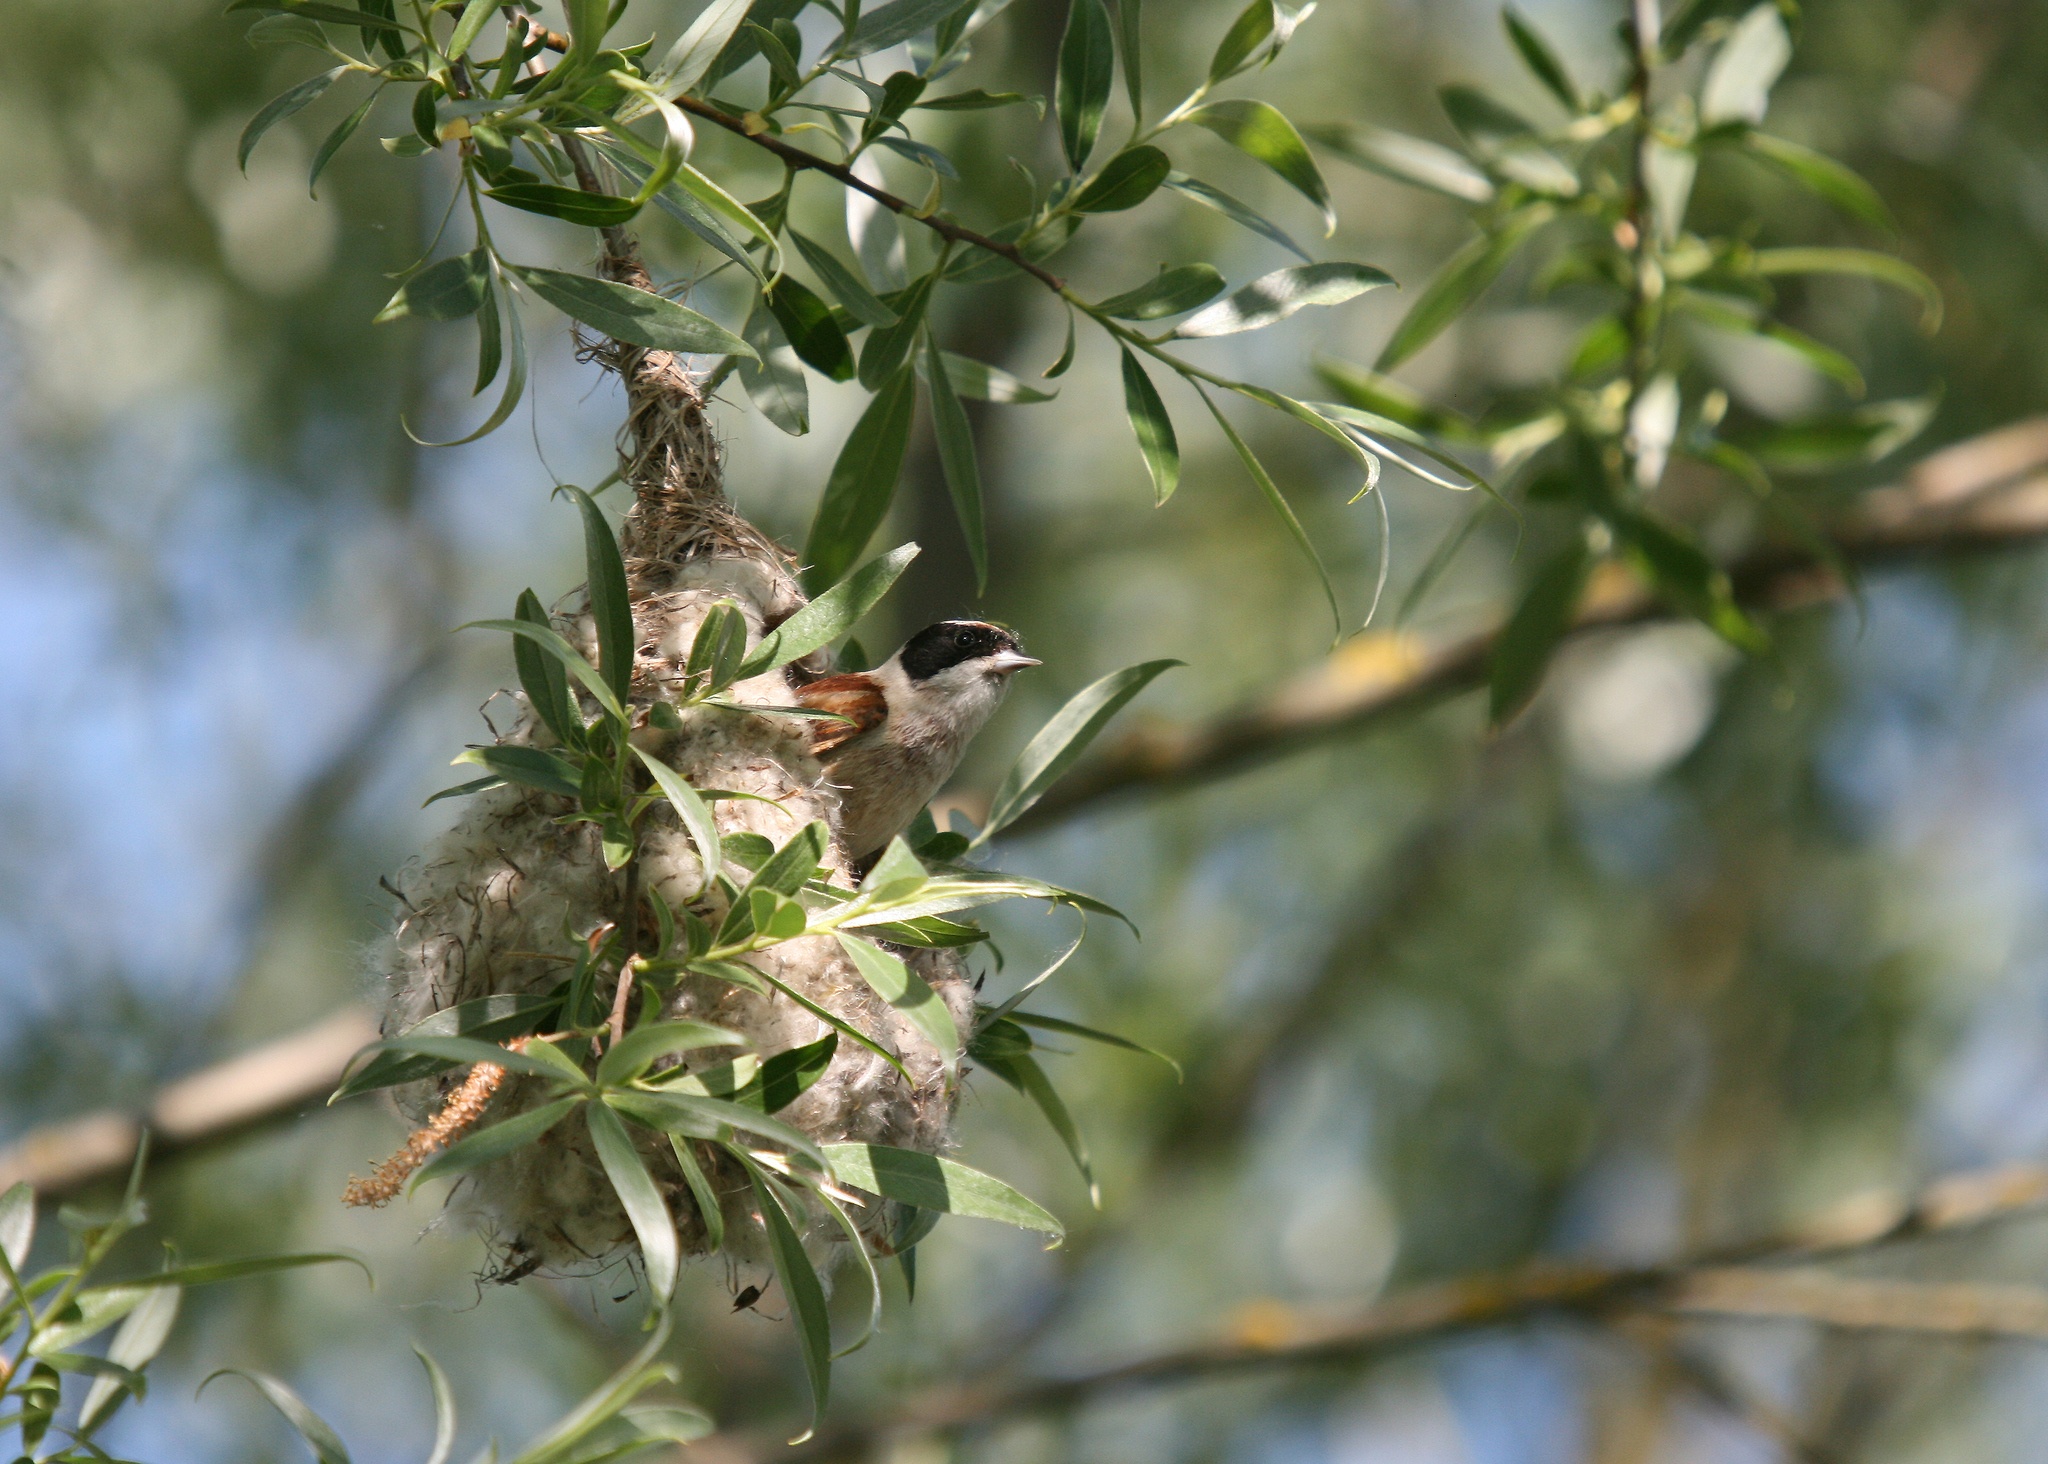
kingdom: Animalia
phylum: Chordata
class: Aves
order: Passeriformes
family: Remizidae
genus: Remiz
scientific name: Remiz pendulinus
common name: Eurasian penduline tit
